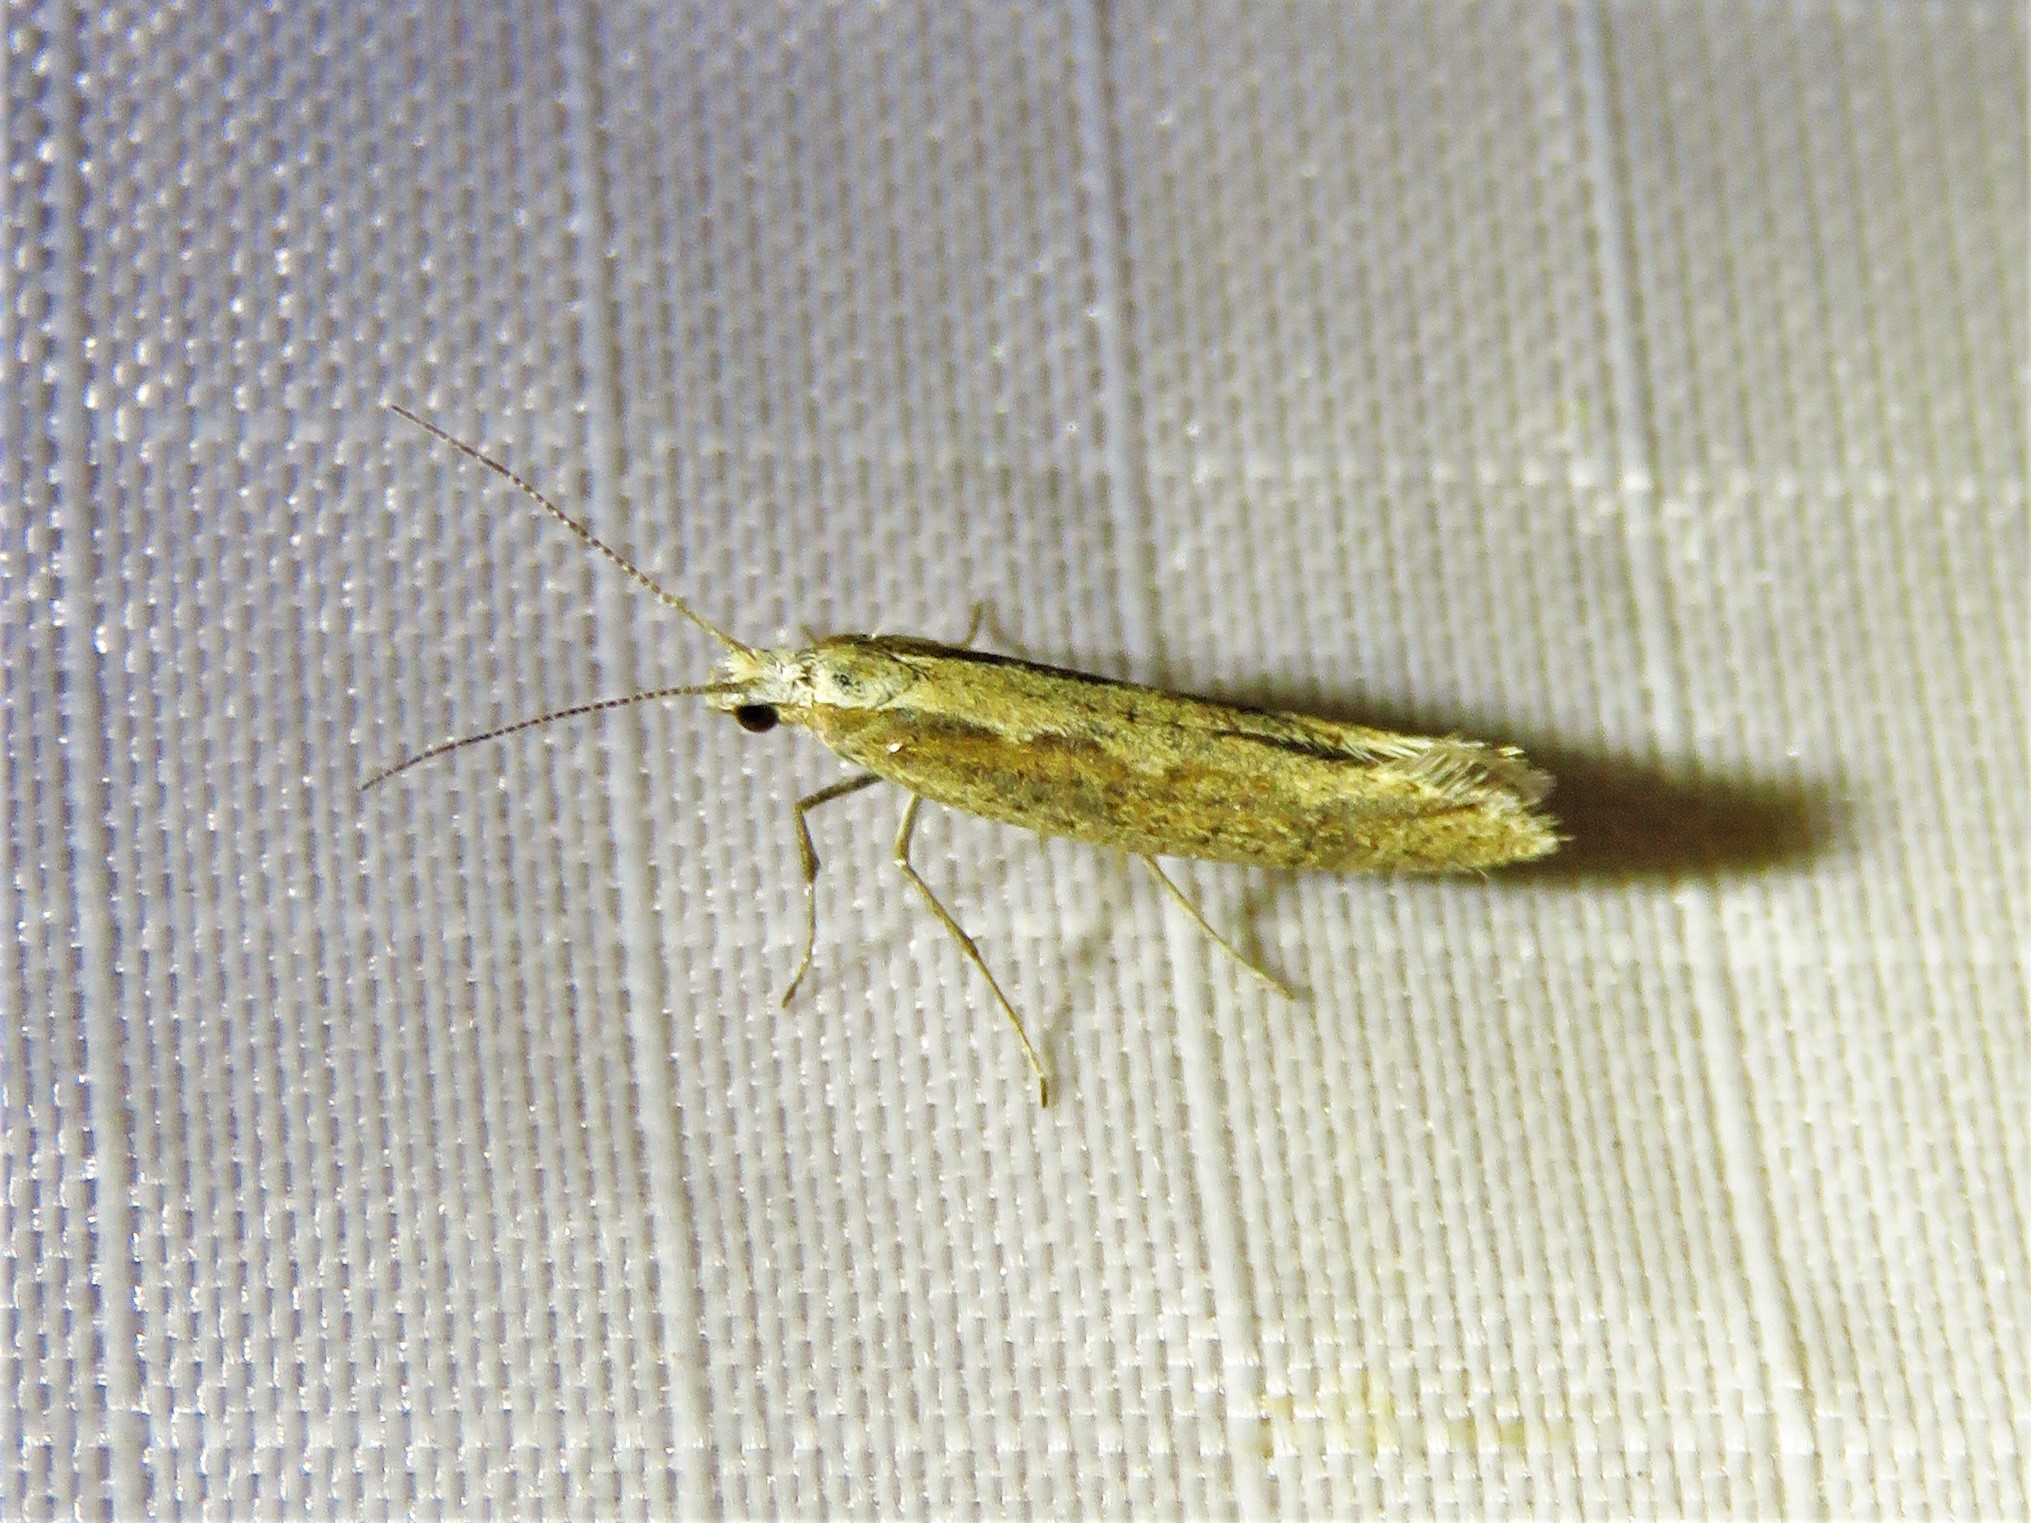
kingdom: Animalia
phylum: Arthropoda
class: Insecta
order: Lepidoptera
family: Plutellidae
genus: Plutella
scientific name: Plutella xylostella
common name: Diamond-back moth
